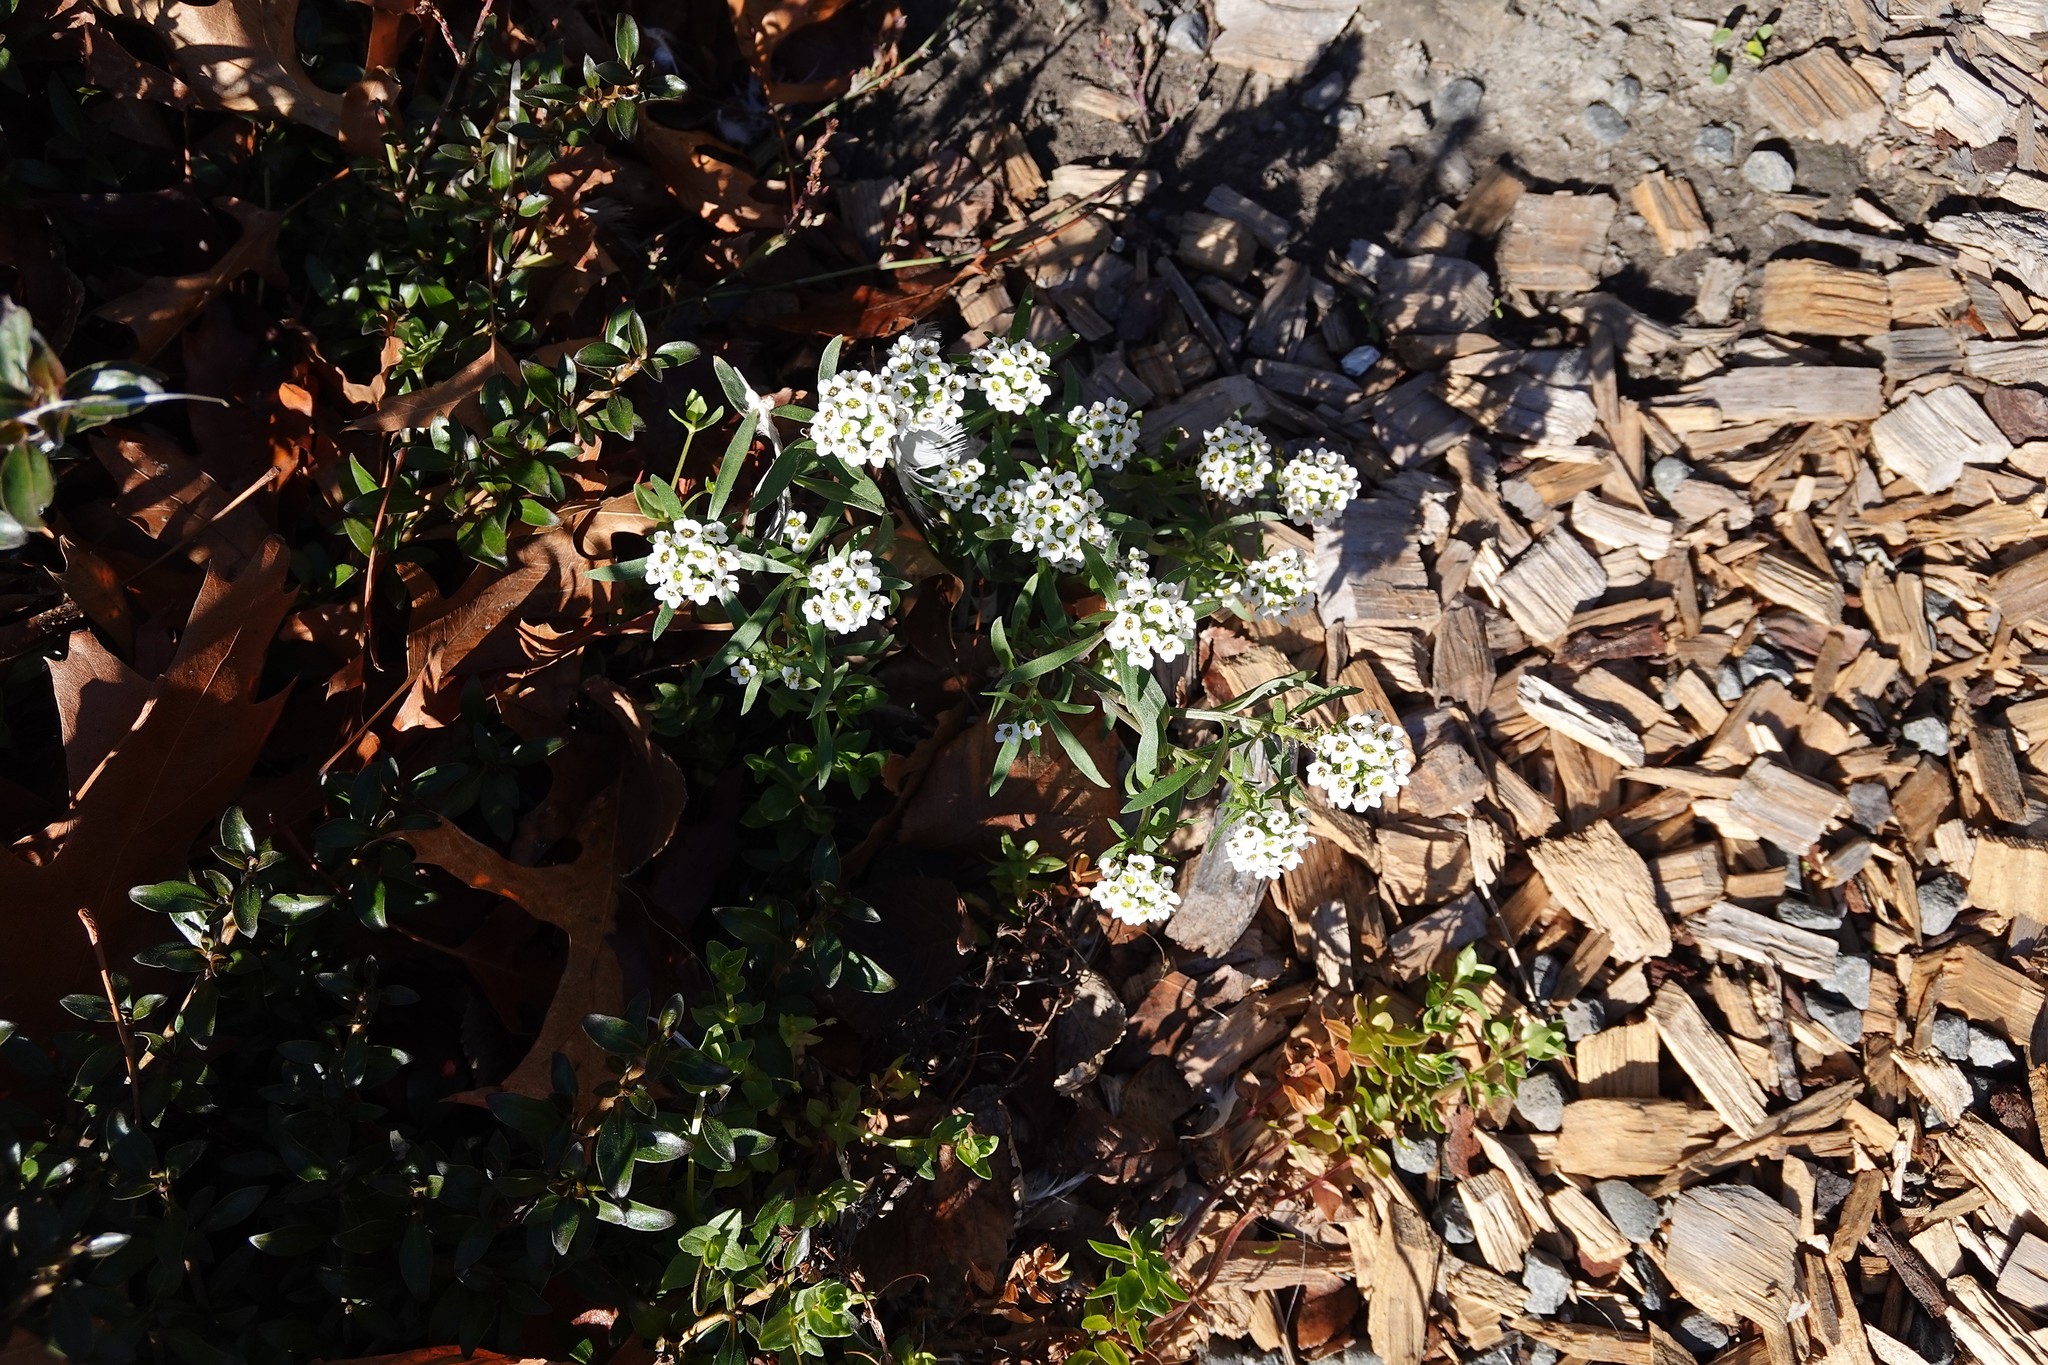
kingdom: Plantae
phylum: Tracheophyta
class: Magnoliopsida
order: Brassicales
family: Brassicaceae
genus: Lobularia
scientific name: Lobularia maritima
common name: Sweet alison
